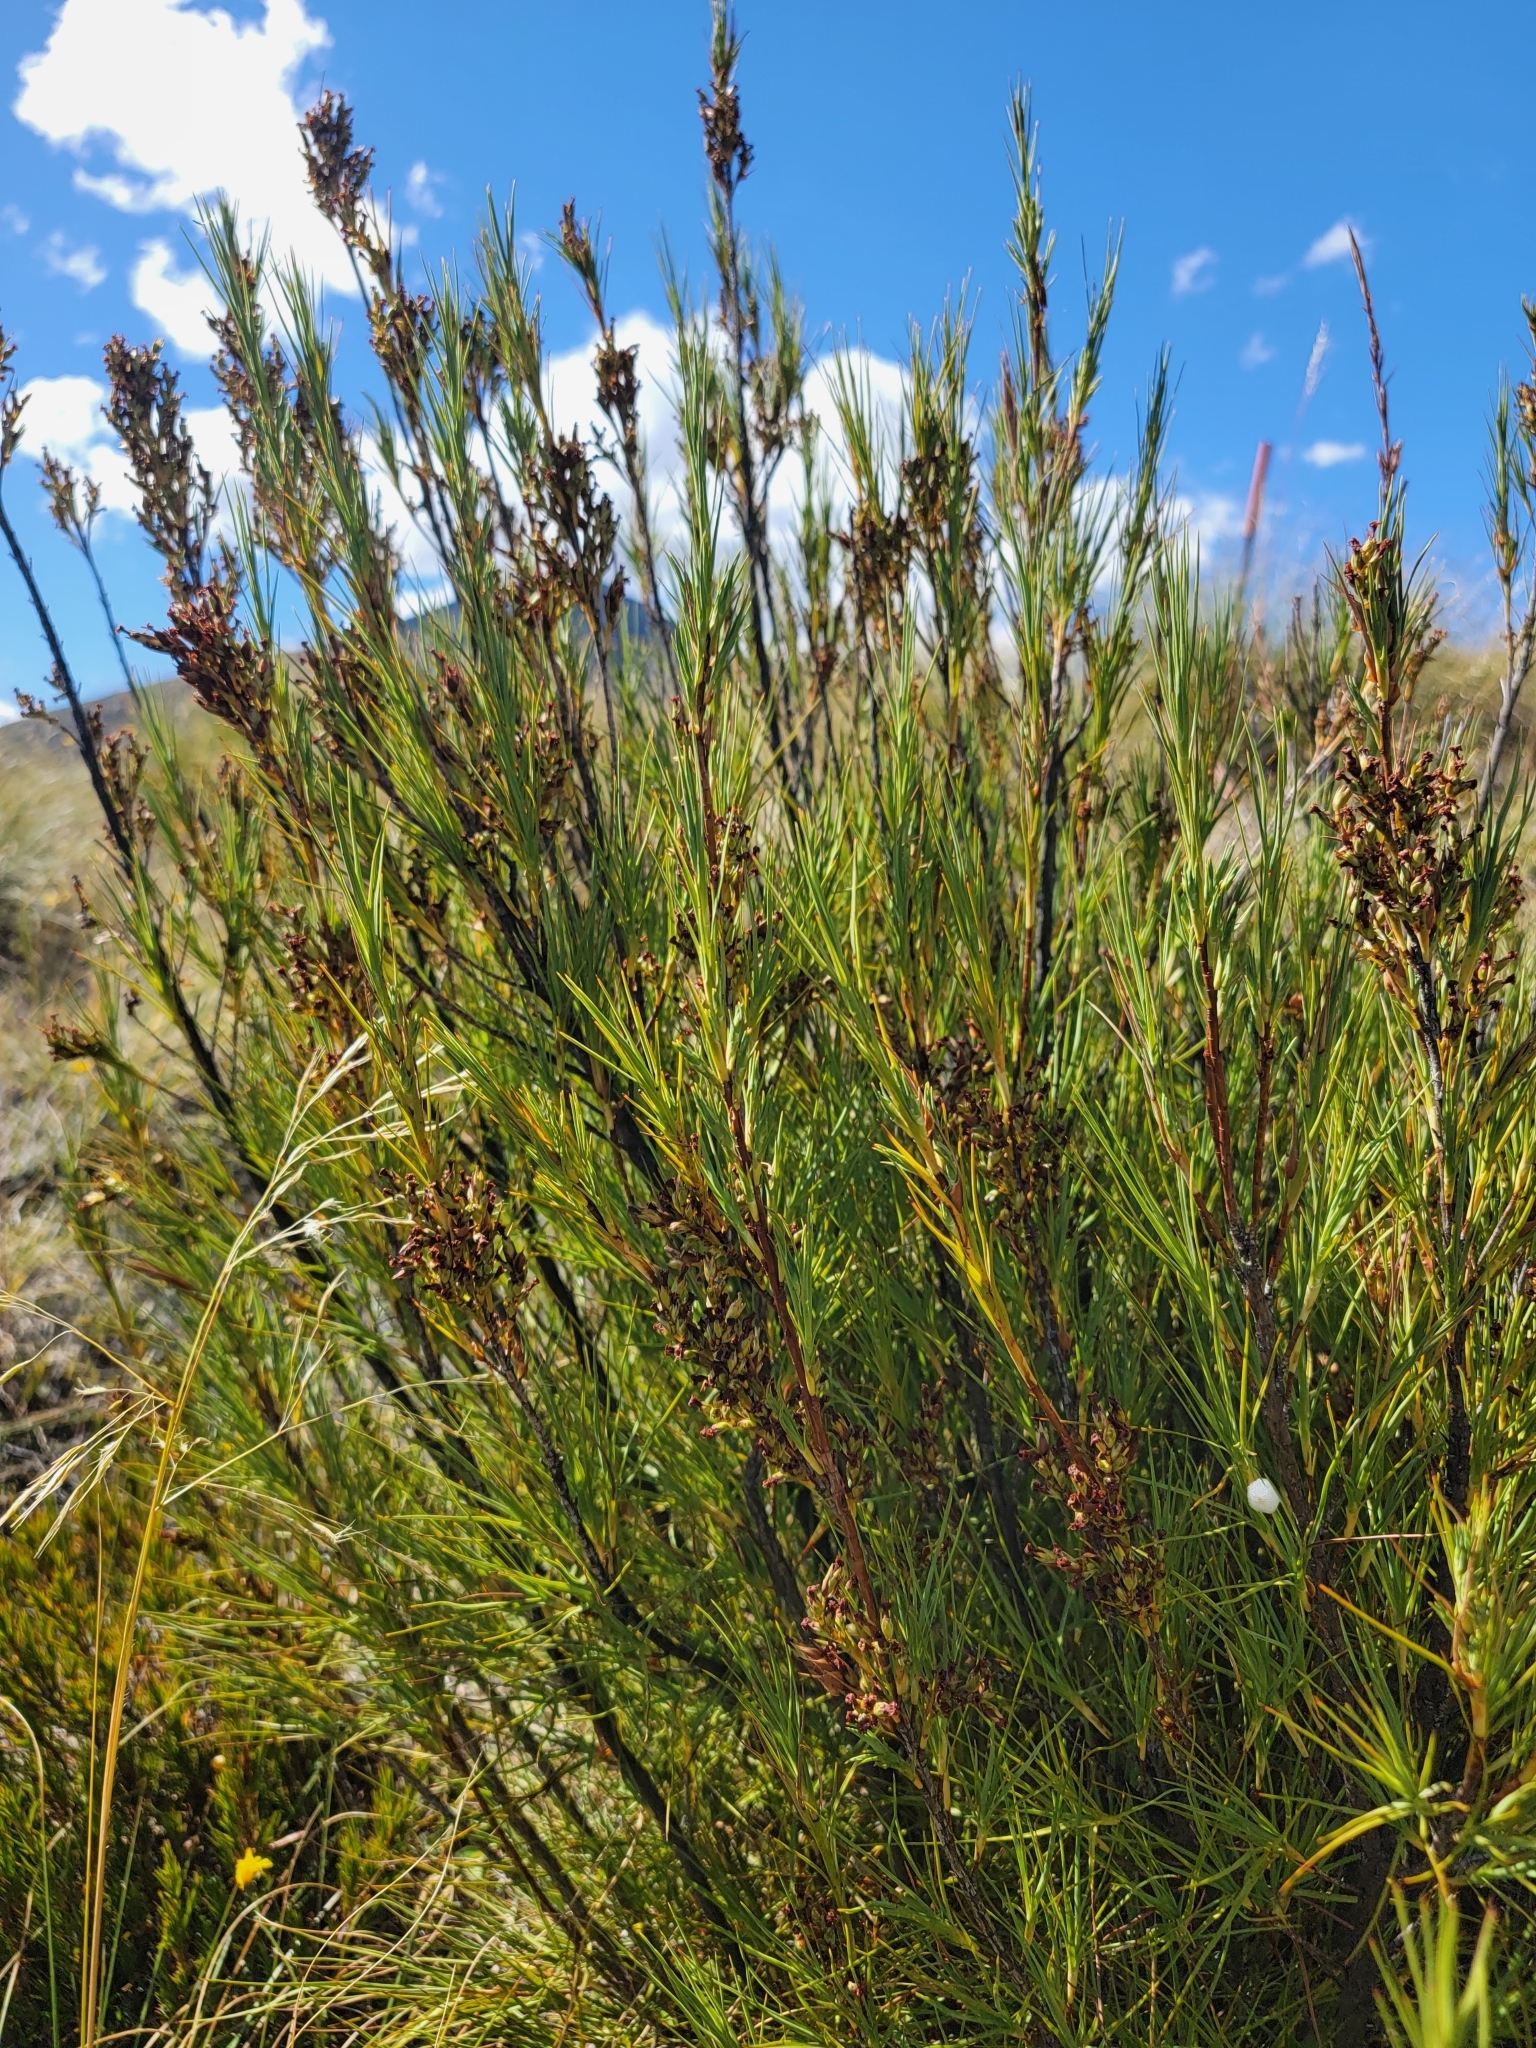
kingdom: Plantae
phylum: Tracheophyta
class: Magnoliopsida
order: Ericales
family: Ericaceae
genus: Dracophyllum
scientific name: Dracophyllum longifolium
